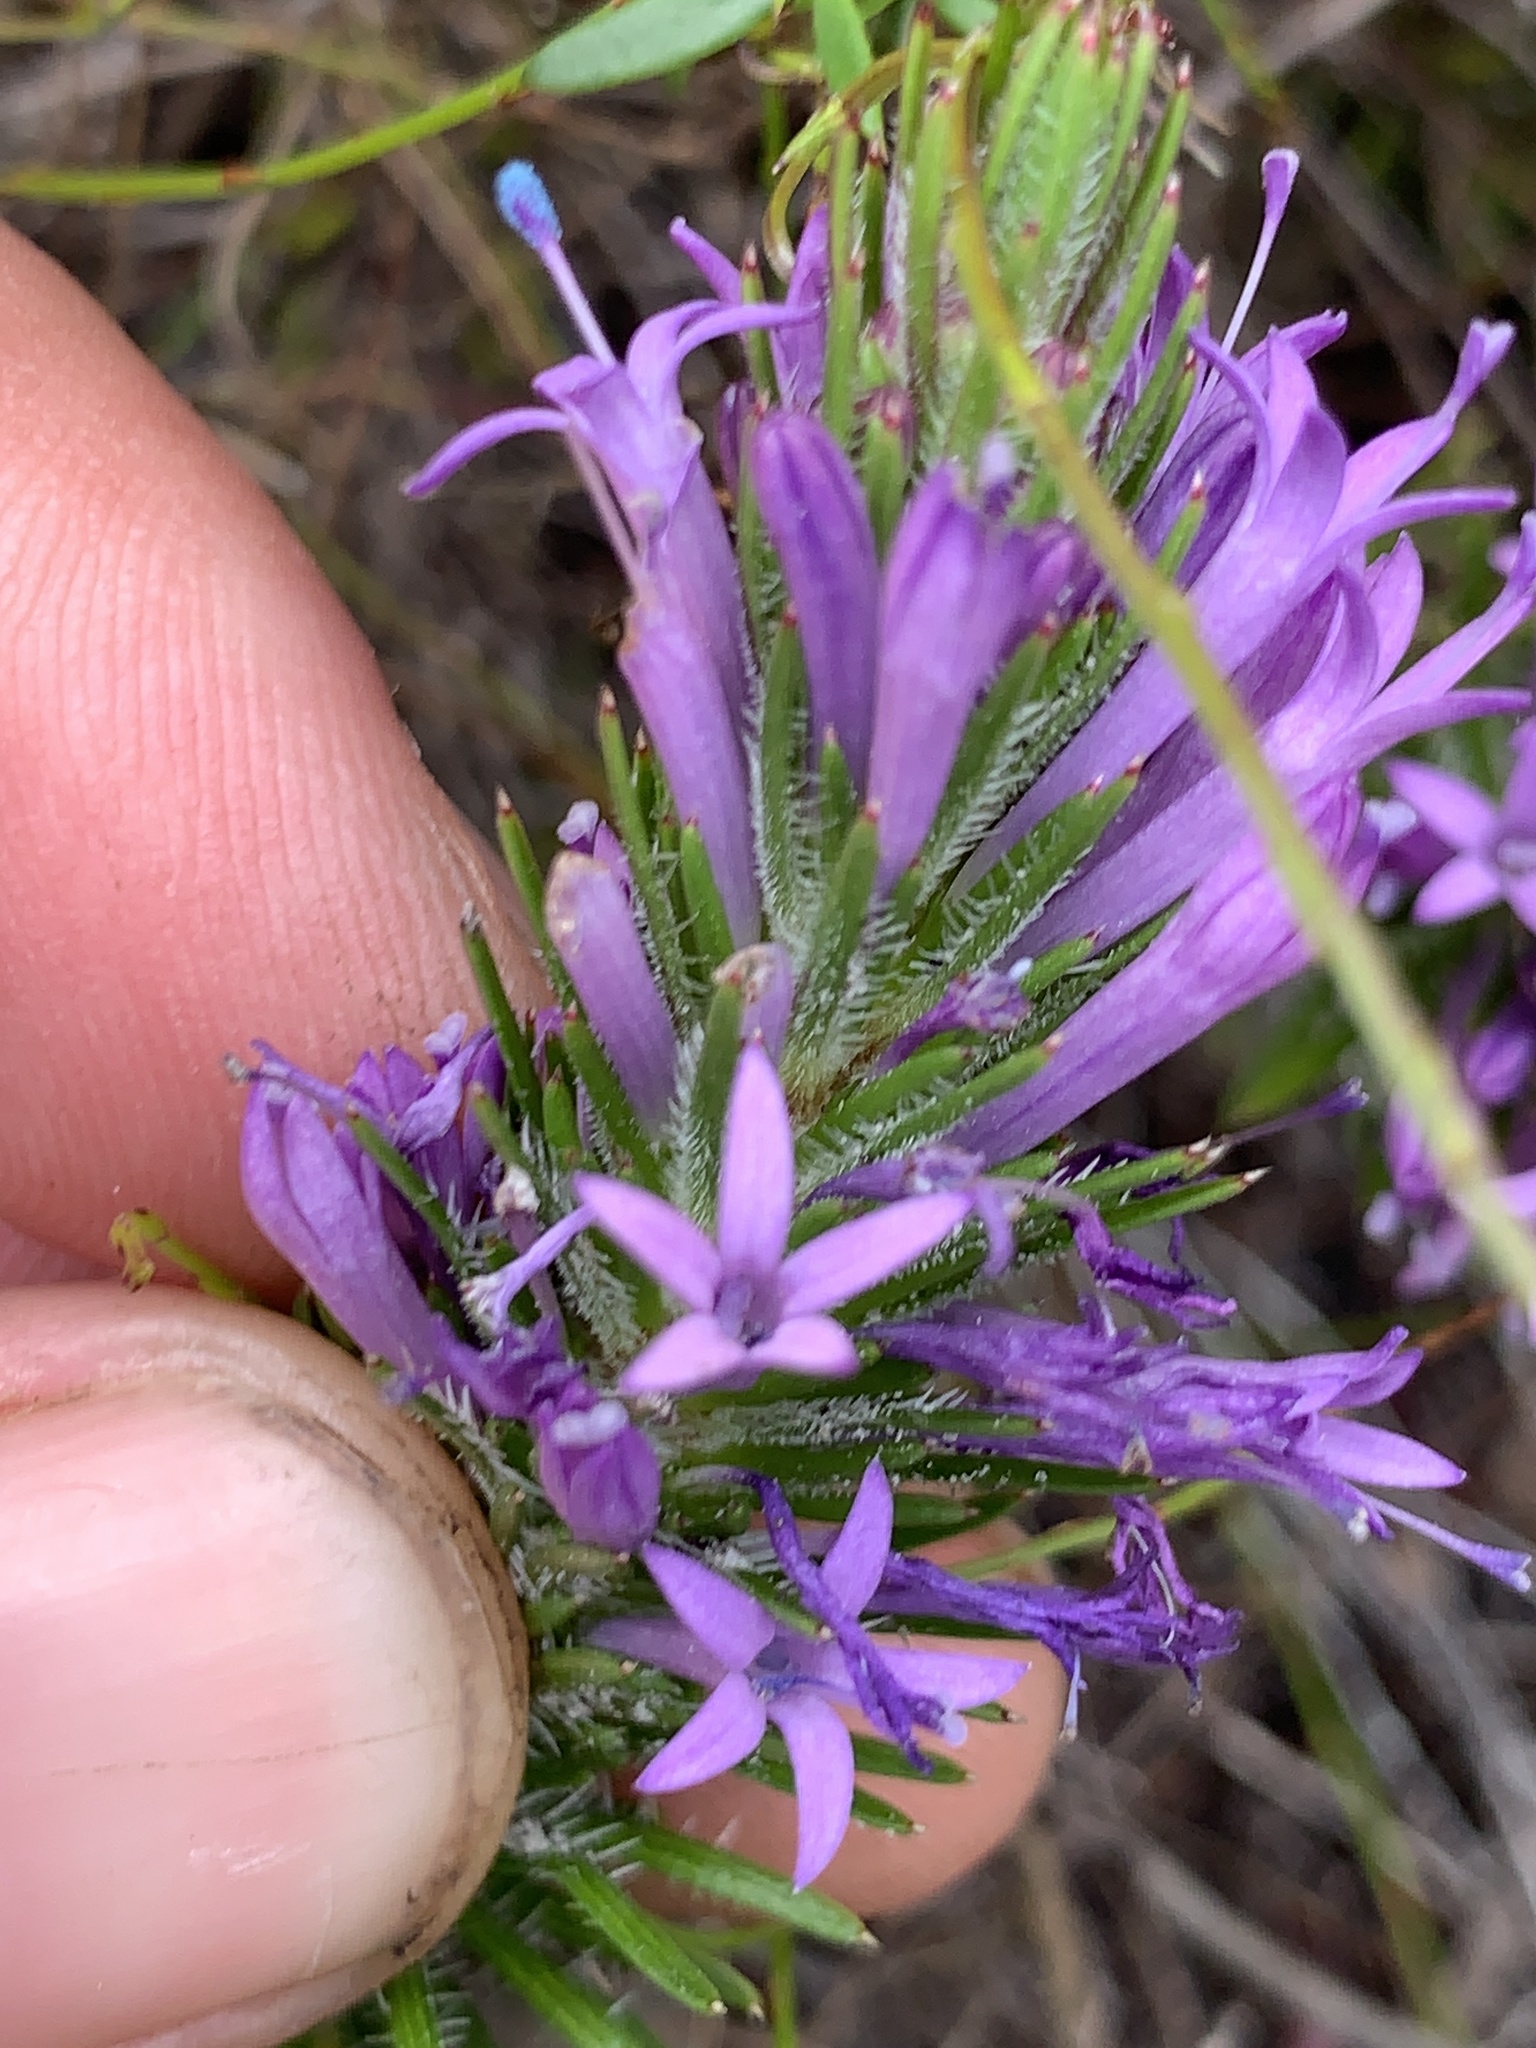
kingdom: Plantae
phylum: Tracheophyta
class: Magnoliopsida
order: Asterales
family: Campanulaceae
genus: Merciera
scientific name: Merciera azurea
